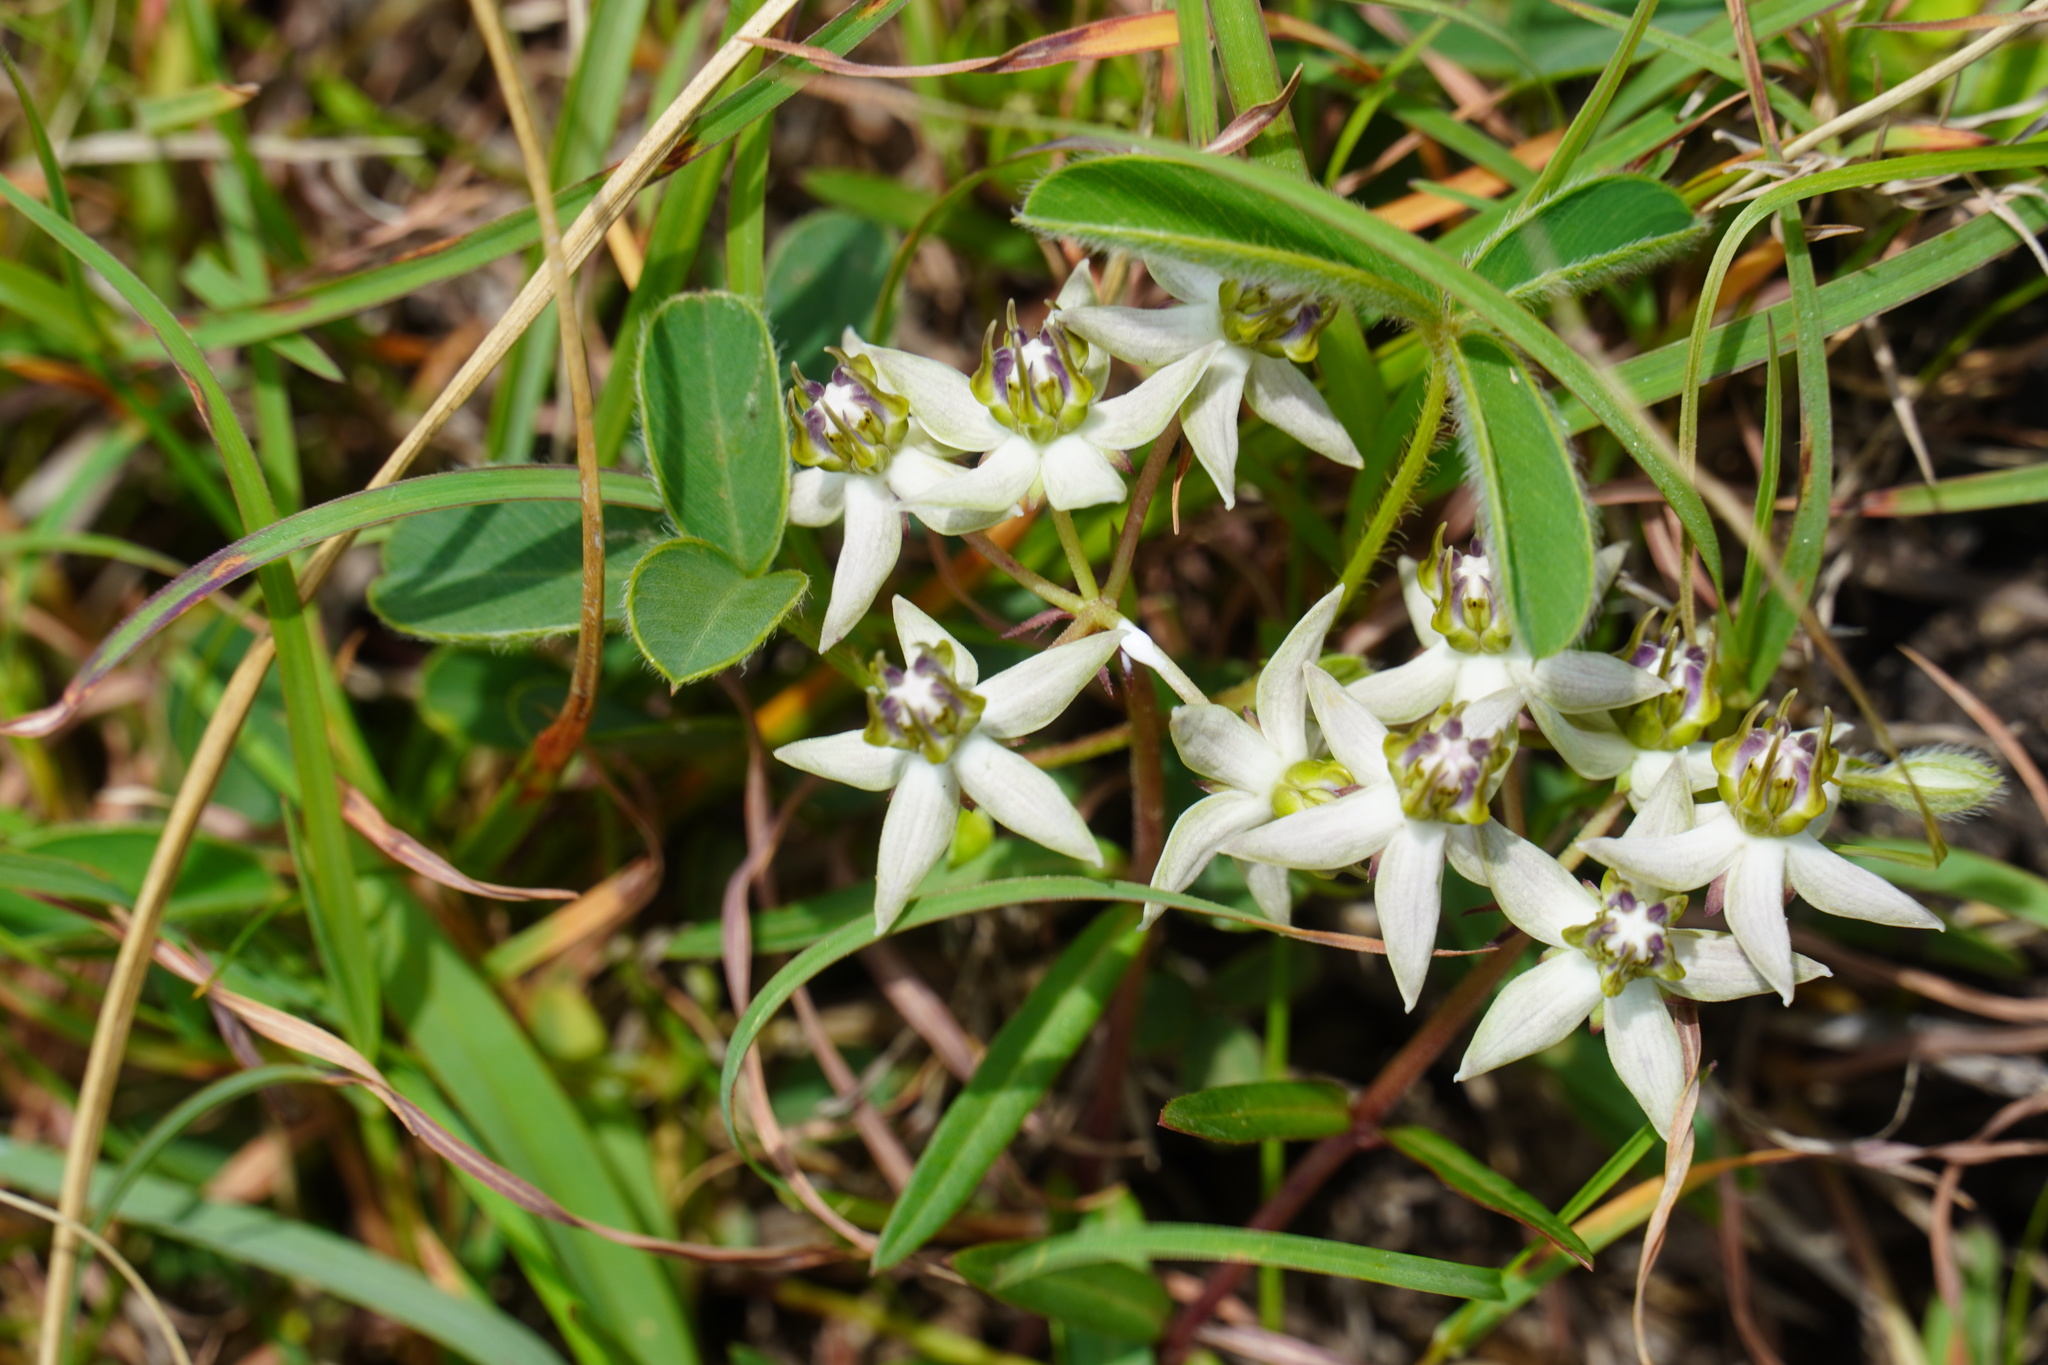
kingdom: Plantae
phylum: Tracheophyta
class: Magnoliopsida
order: Gentianales
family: Apocynaceae
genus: Asclepias
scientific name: Asclepias gibba
